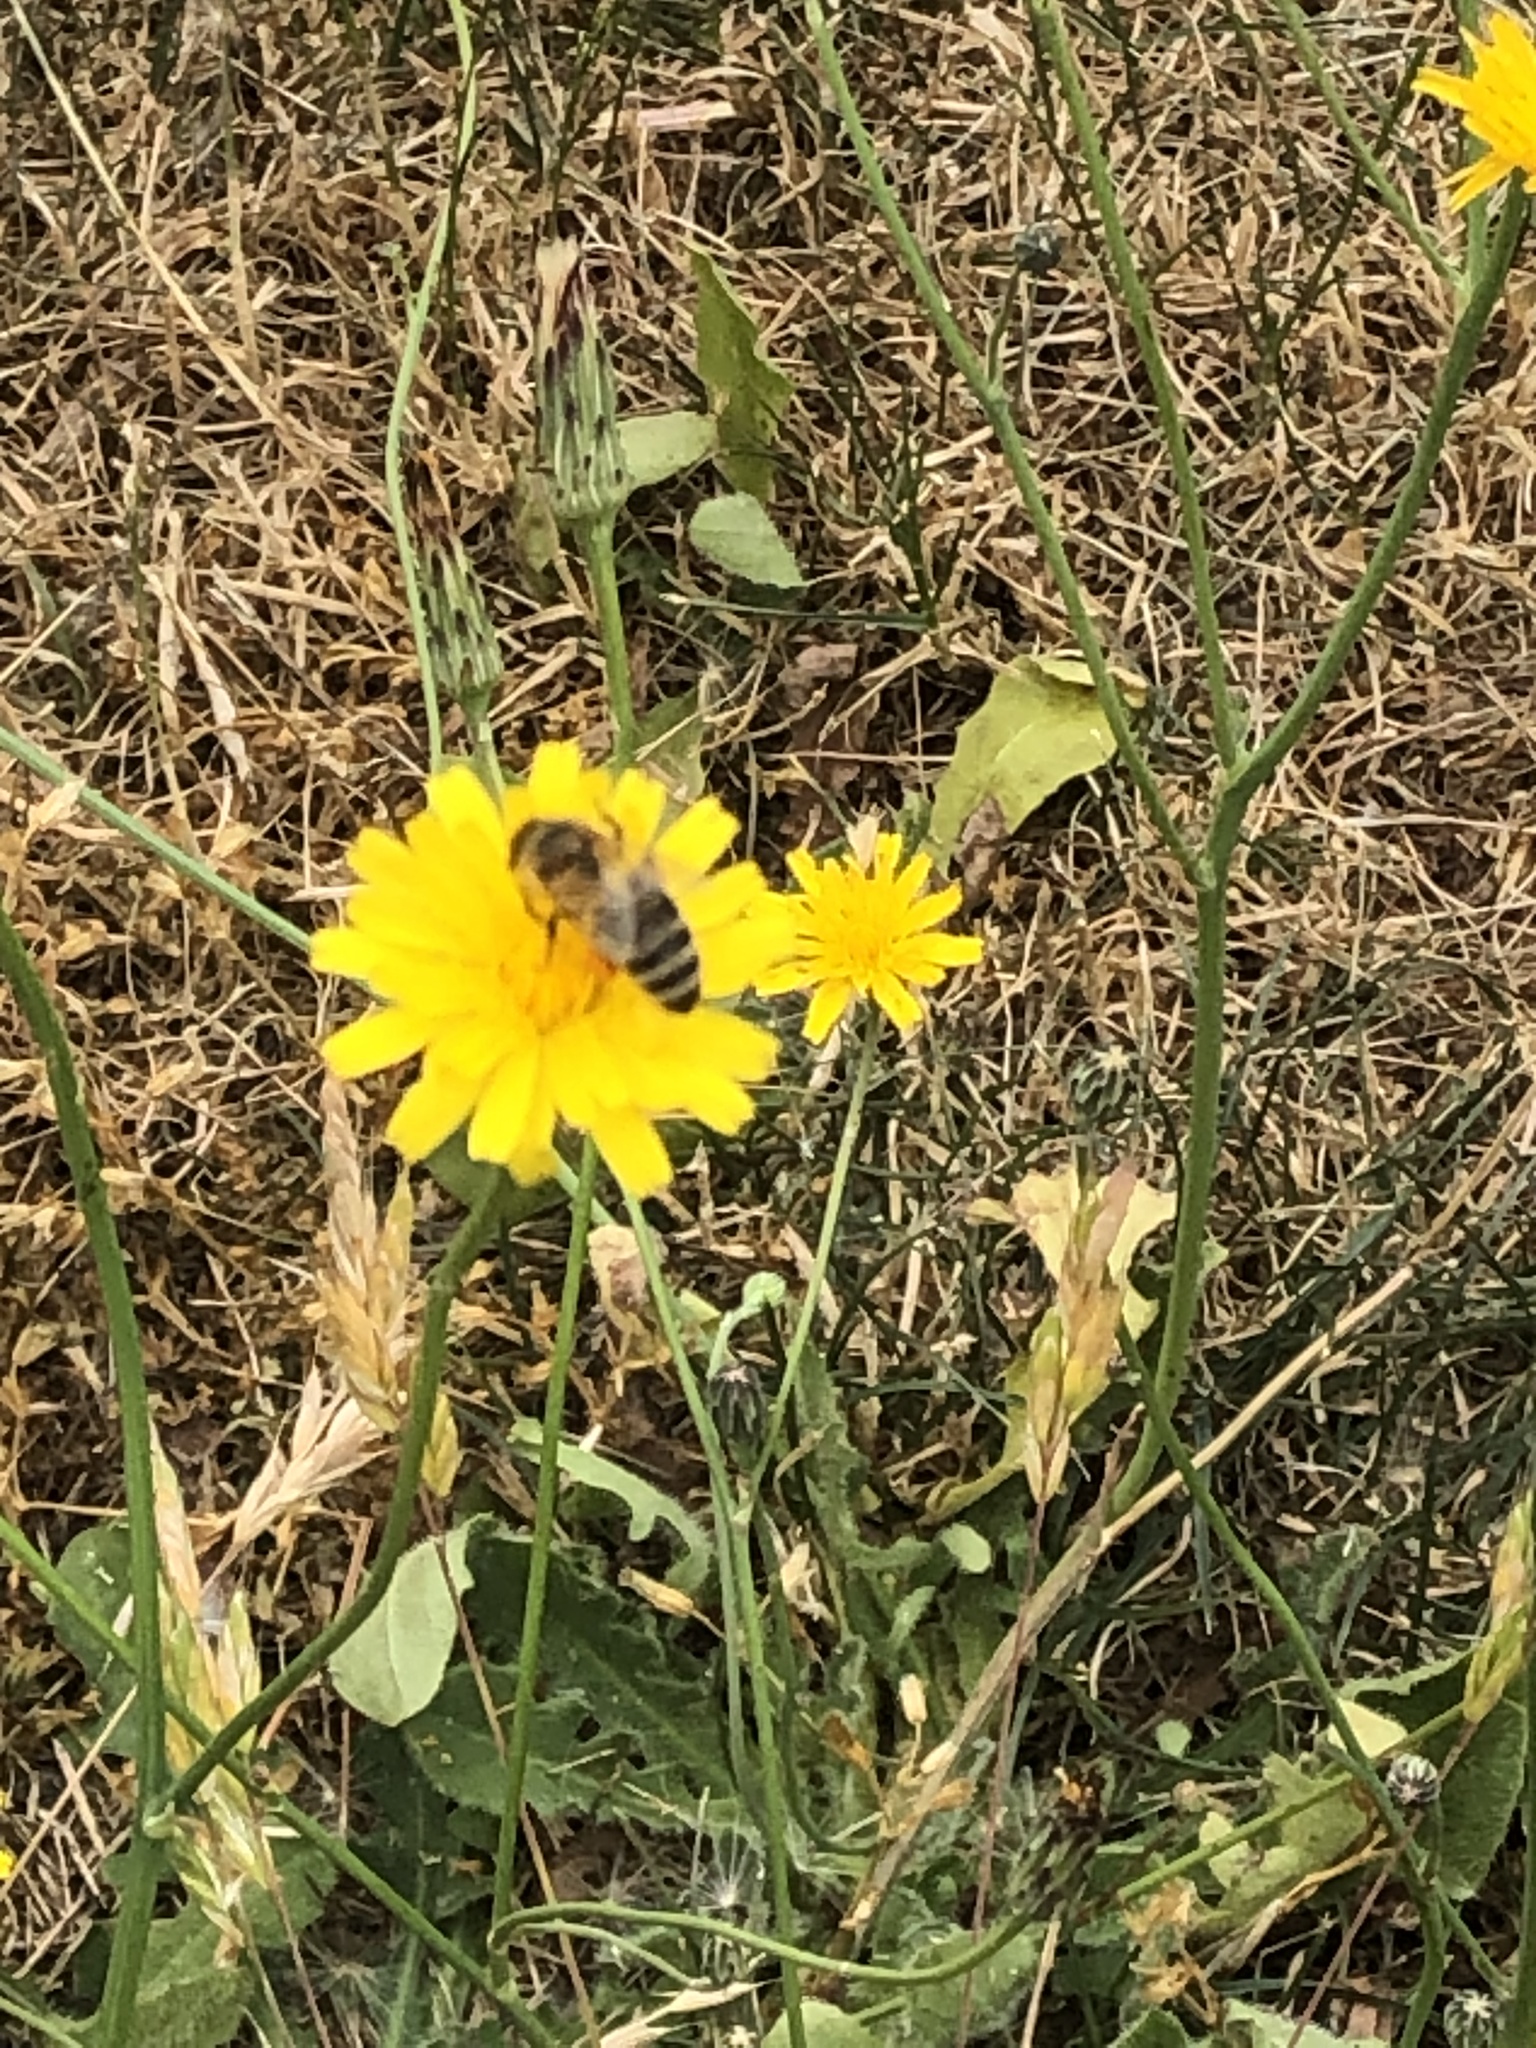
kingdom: Animalia
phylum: Arthropoda
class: Insecta
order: Hymenoptera
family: Apidae
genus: Apis
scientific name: Apis mellifera
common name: Honey bee
